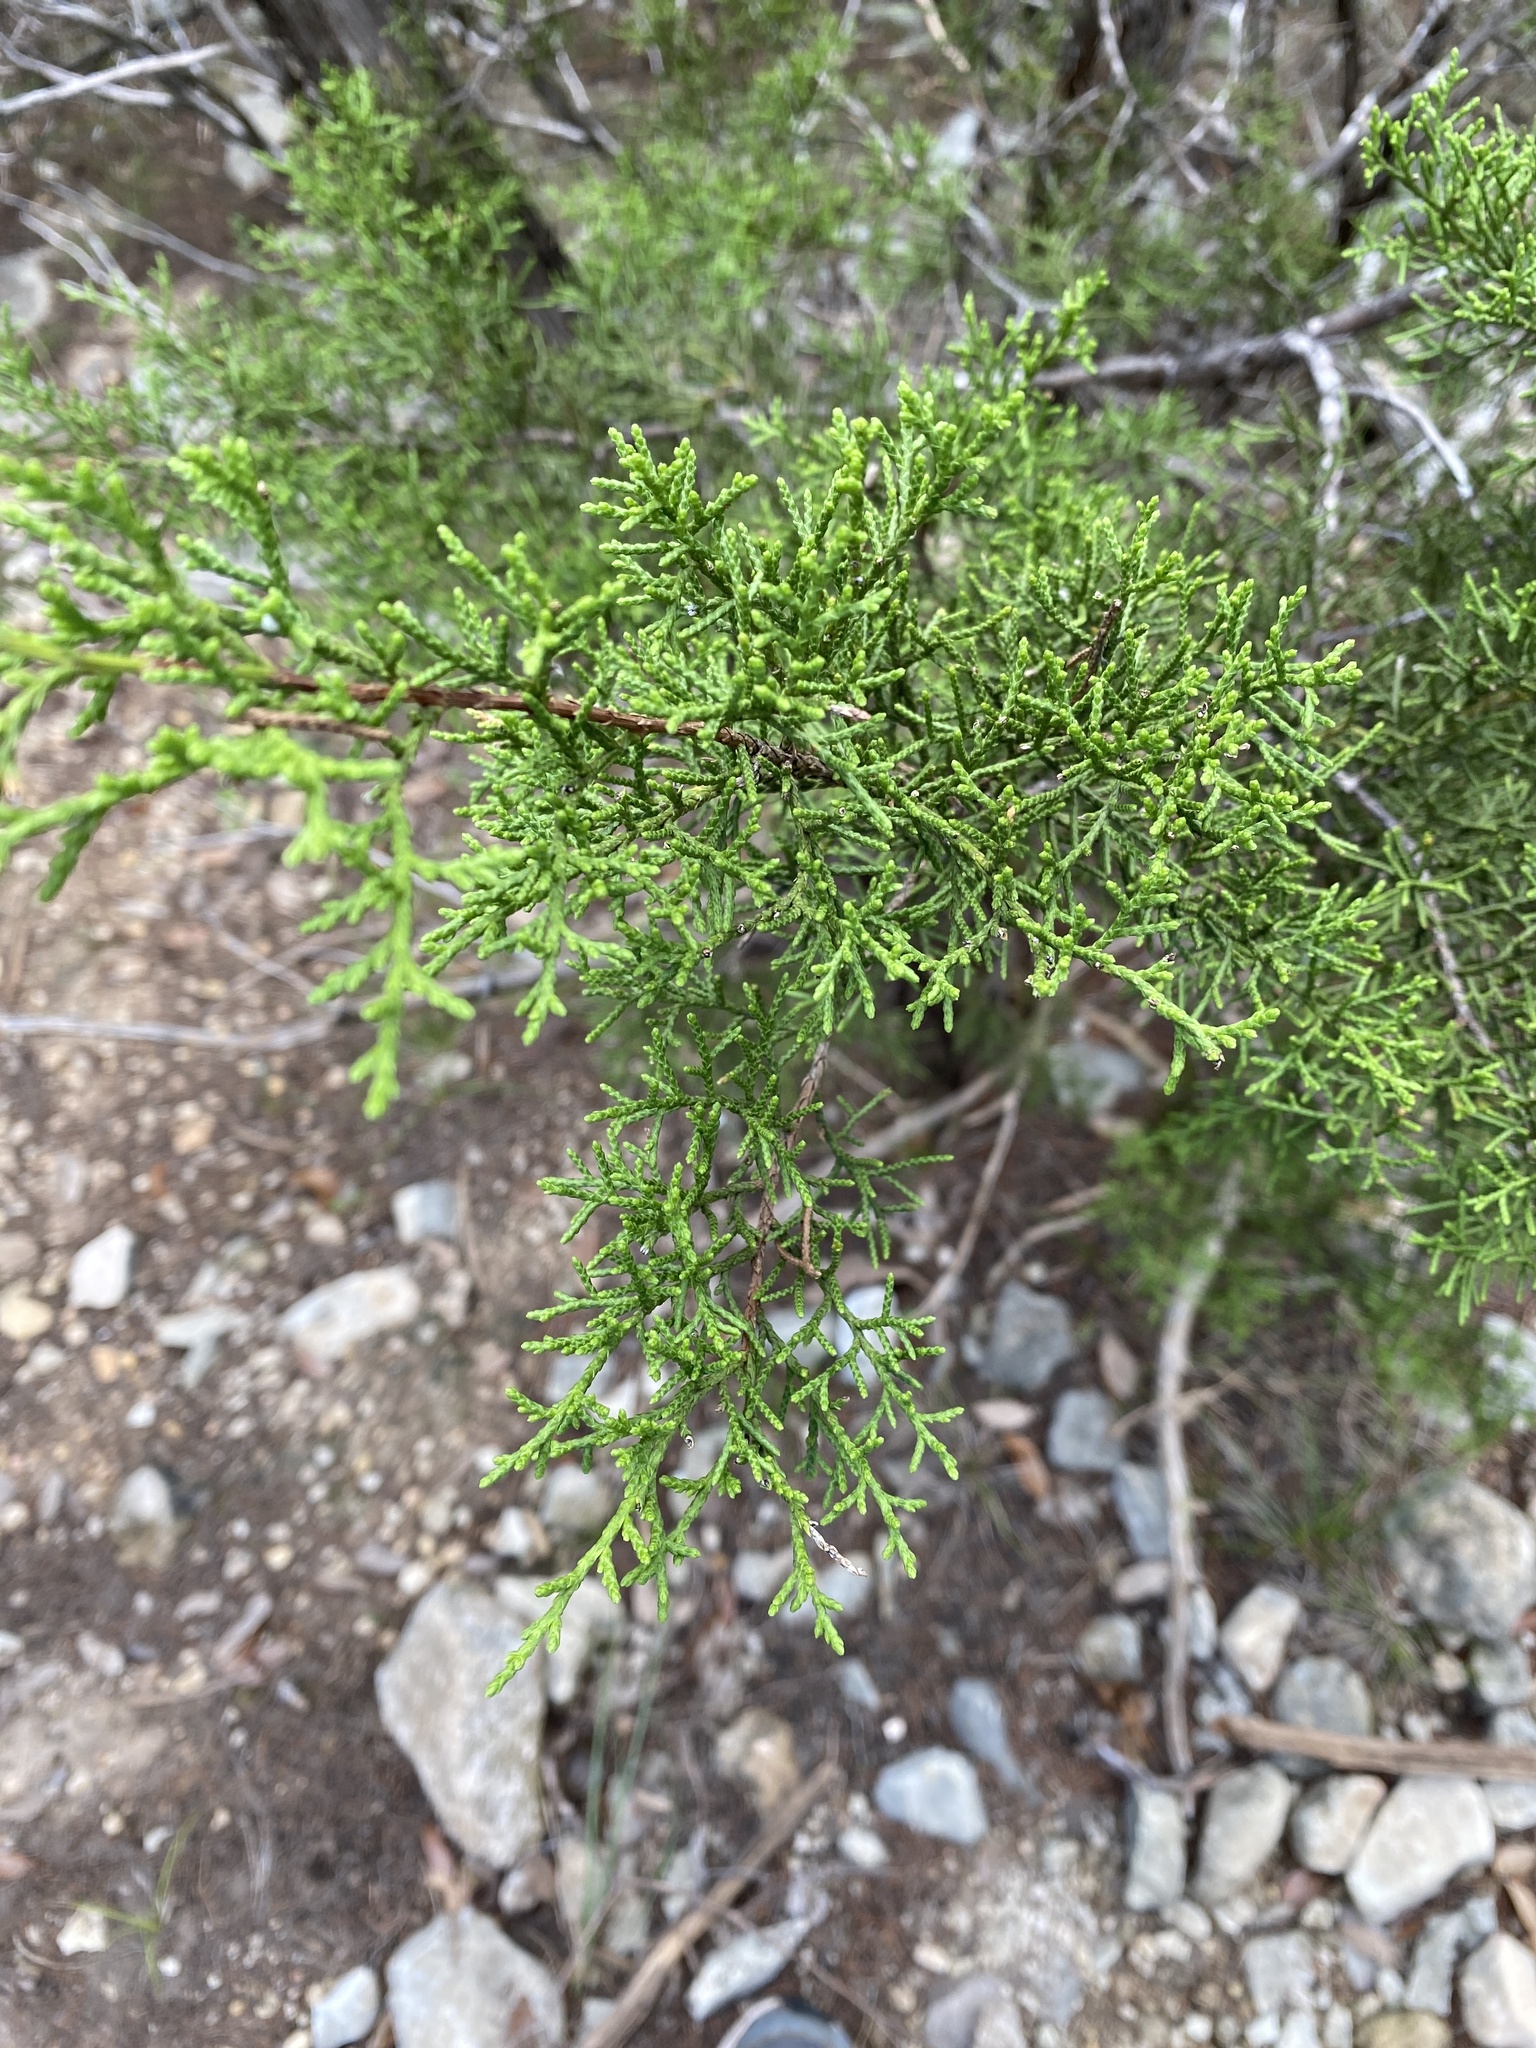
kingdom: Plantae
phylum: Tracheophyta
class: Pinopsida
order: Pinales
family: Cupressaceae
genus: Juniperus
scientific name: Juniperus ashei
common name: Mexican juniper
